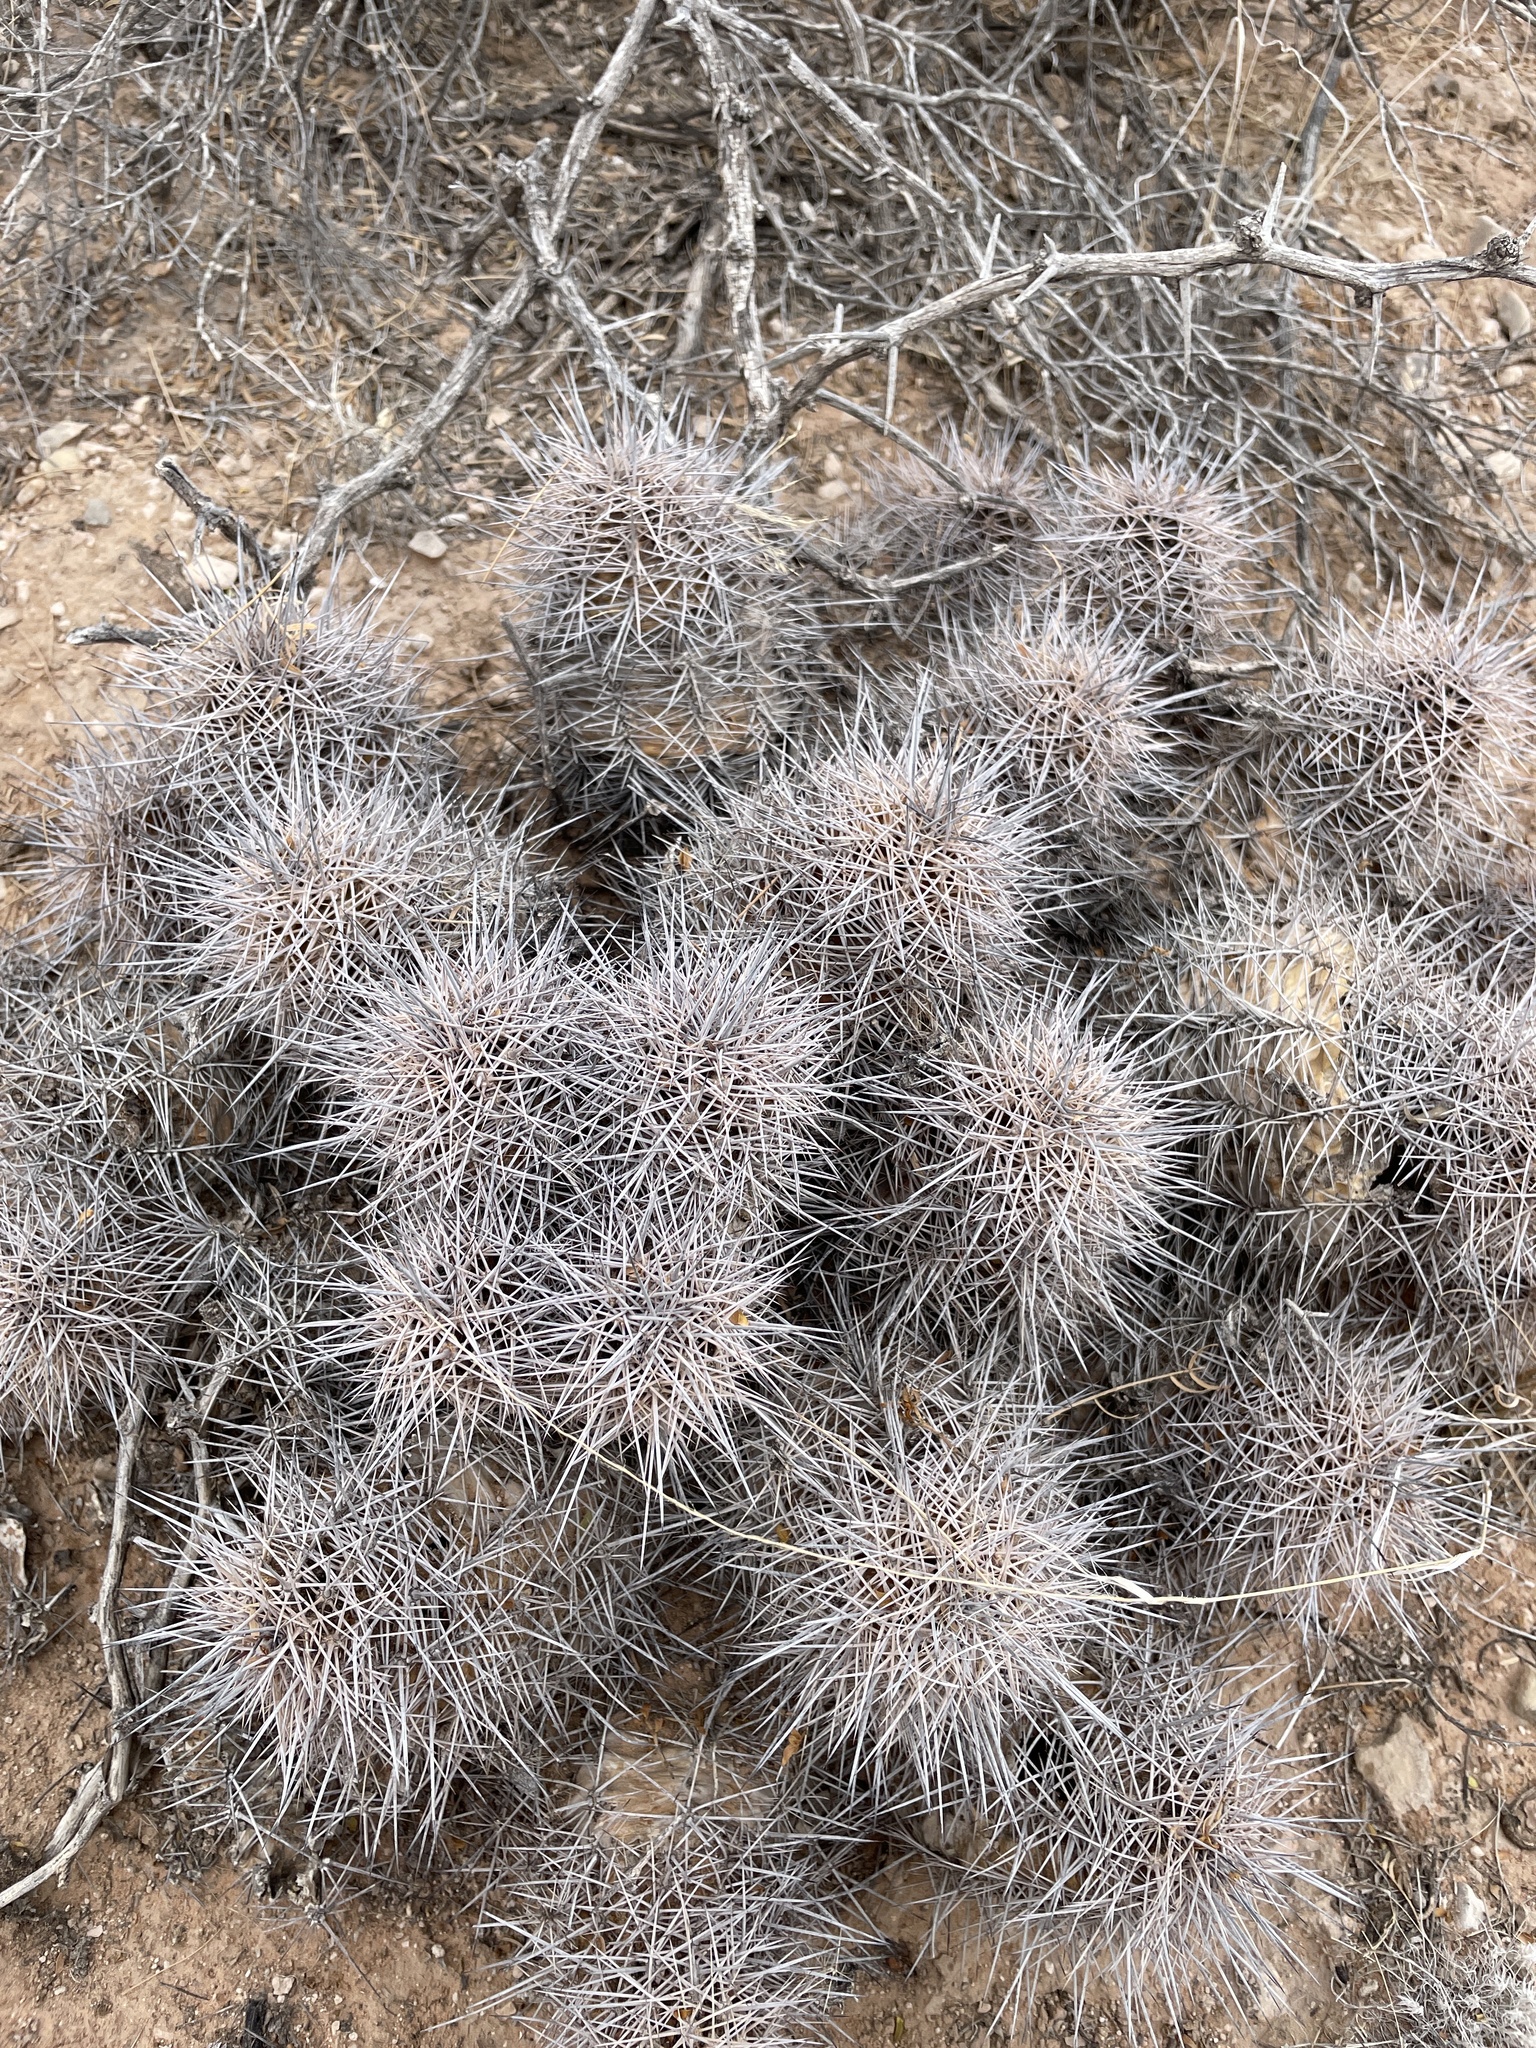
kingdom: Plantae
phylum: Tracheophyta
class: Magnoliopsida
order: Caryophyllales
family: Cactaceae
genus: Echinocereus
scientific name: Echinocereus coccineus
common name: Scarlet hedgehog cactus
